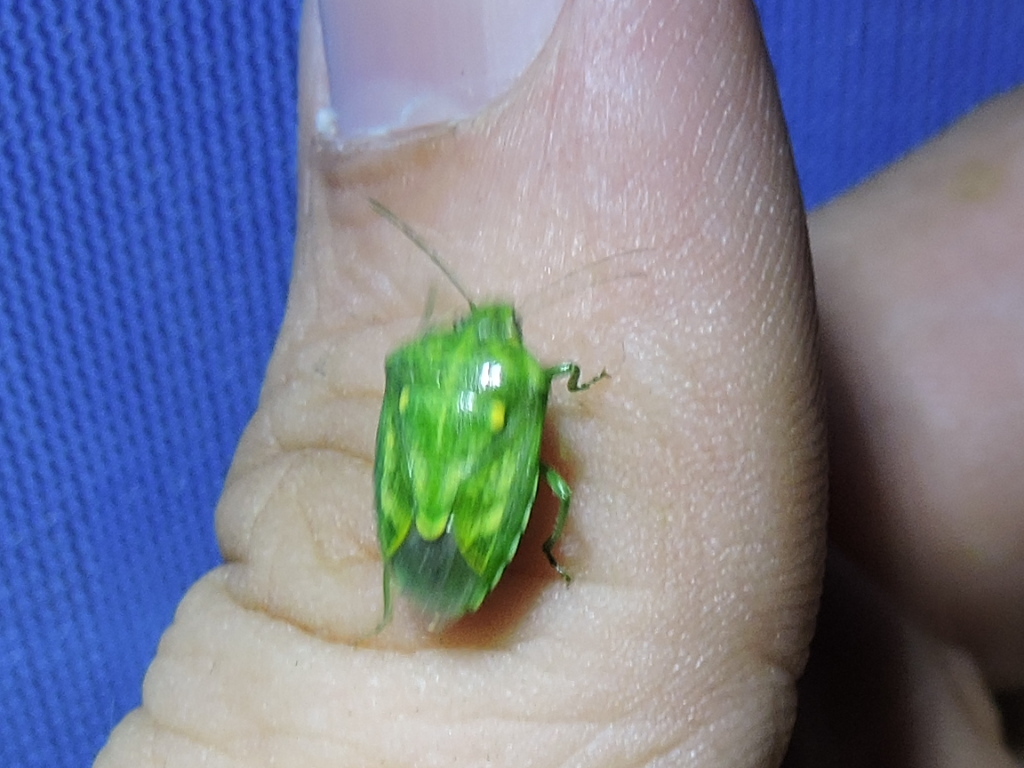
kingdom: Animalia
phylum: Arthropoda
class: Insecta
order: Hemiptera
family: Pentatomidae
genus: Banasa
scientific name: Banasa euchlora
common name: Cedar berry bug
